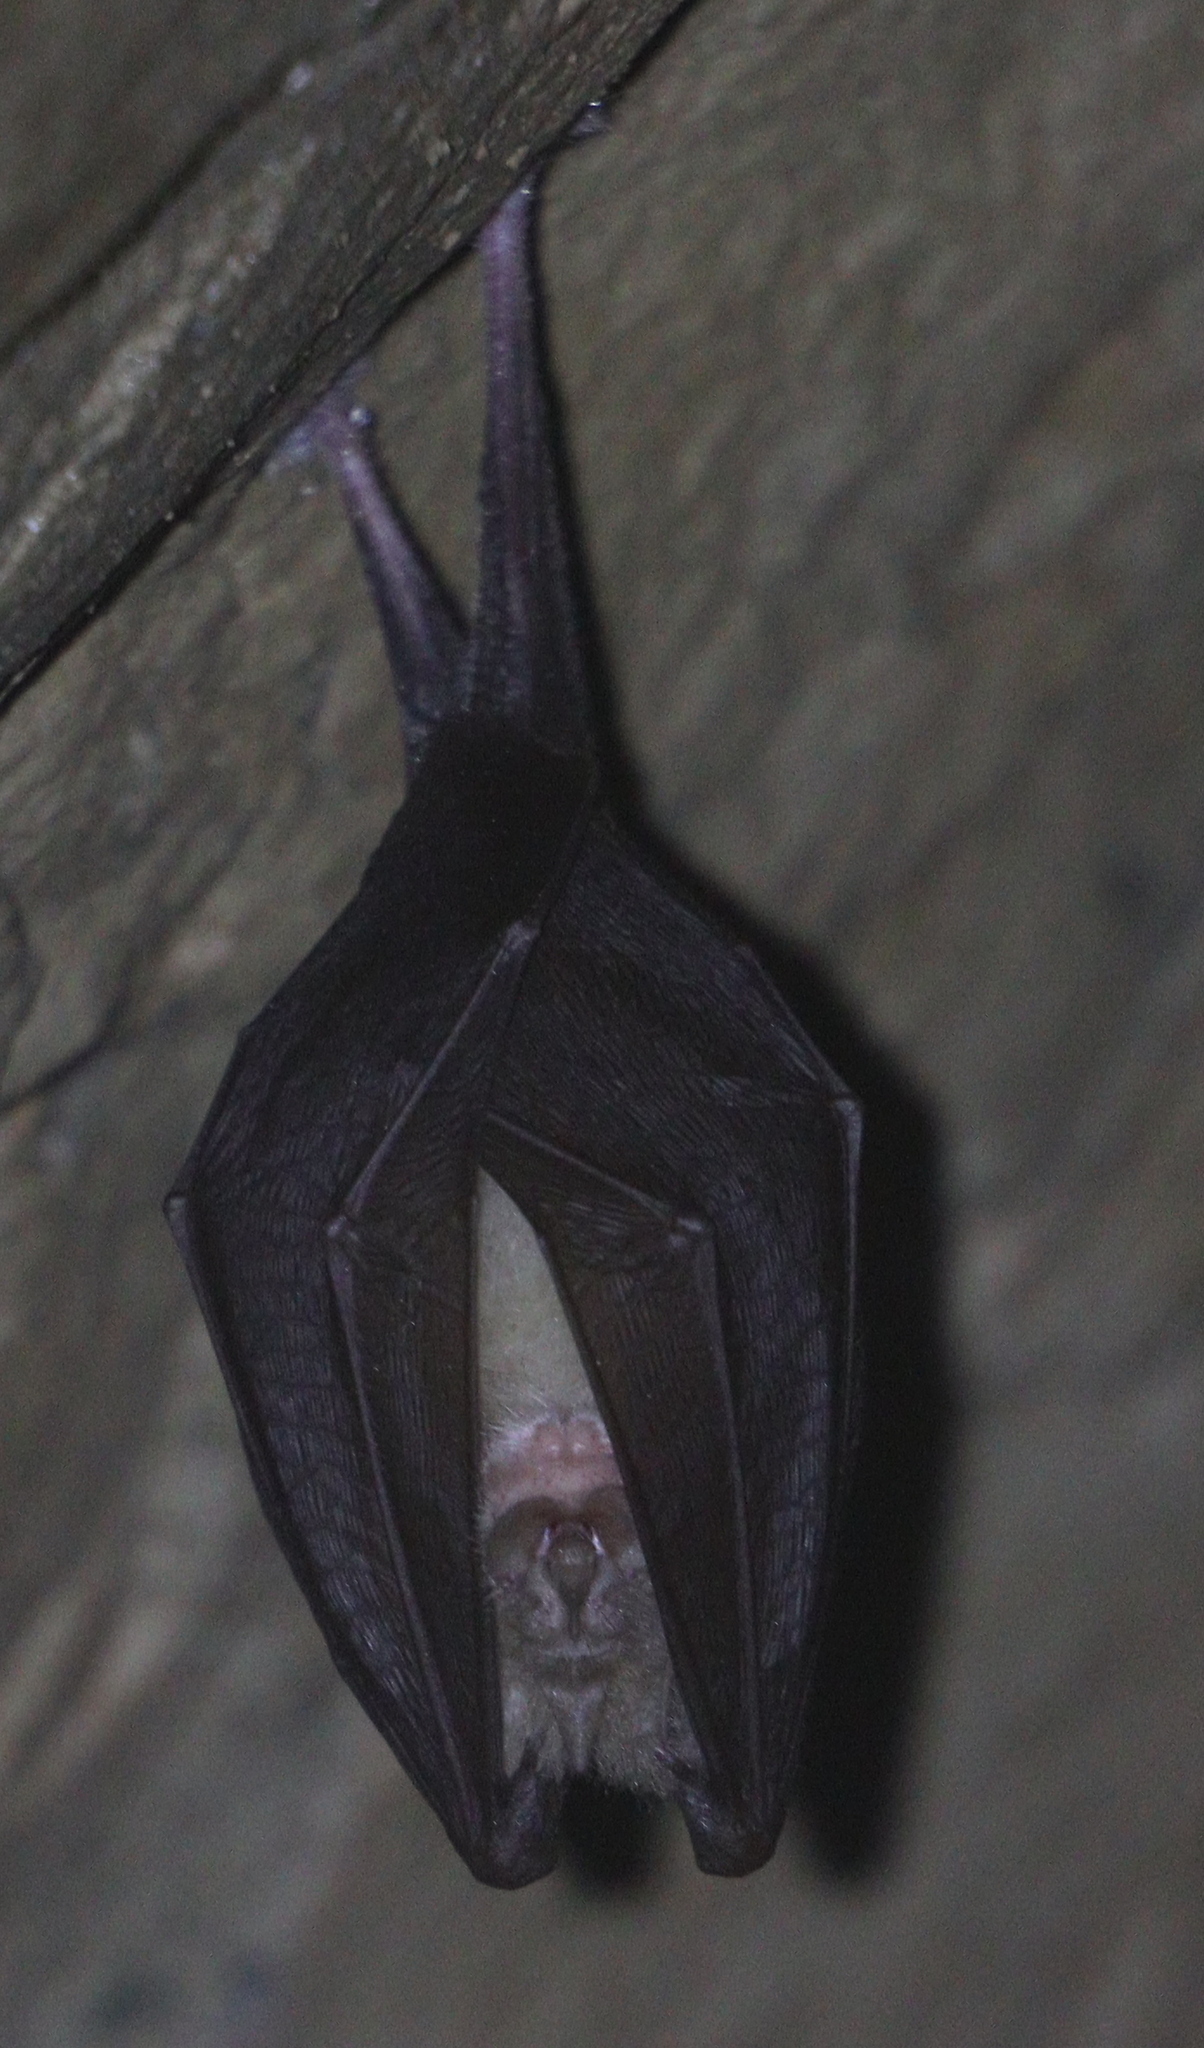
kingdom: Animalia
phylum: Chordata
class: Mammalia
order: Chiroptera
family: Rhinolophidae
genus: Rhinolophus
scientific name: Rhinolophus hipposideros
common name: Lesser horseshoe bat
